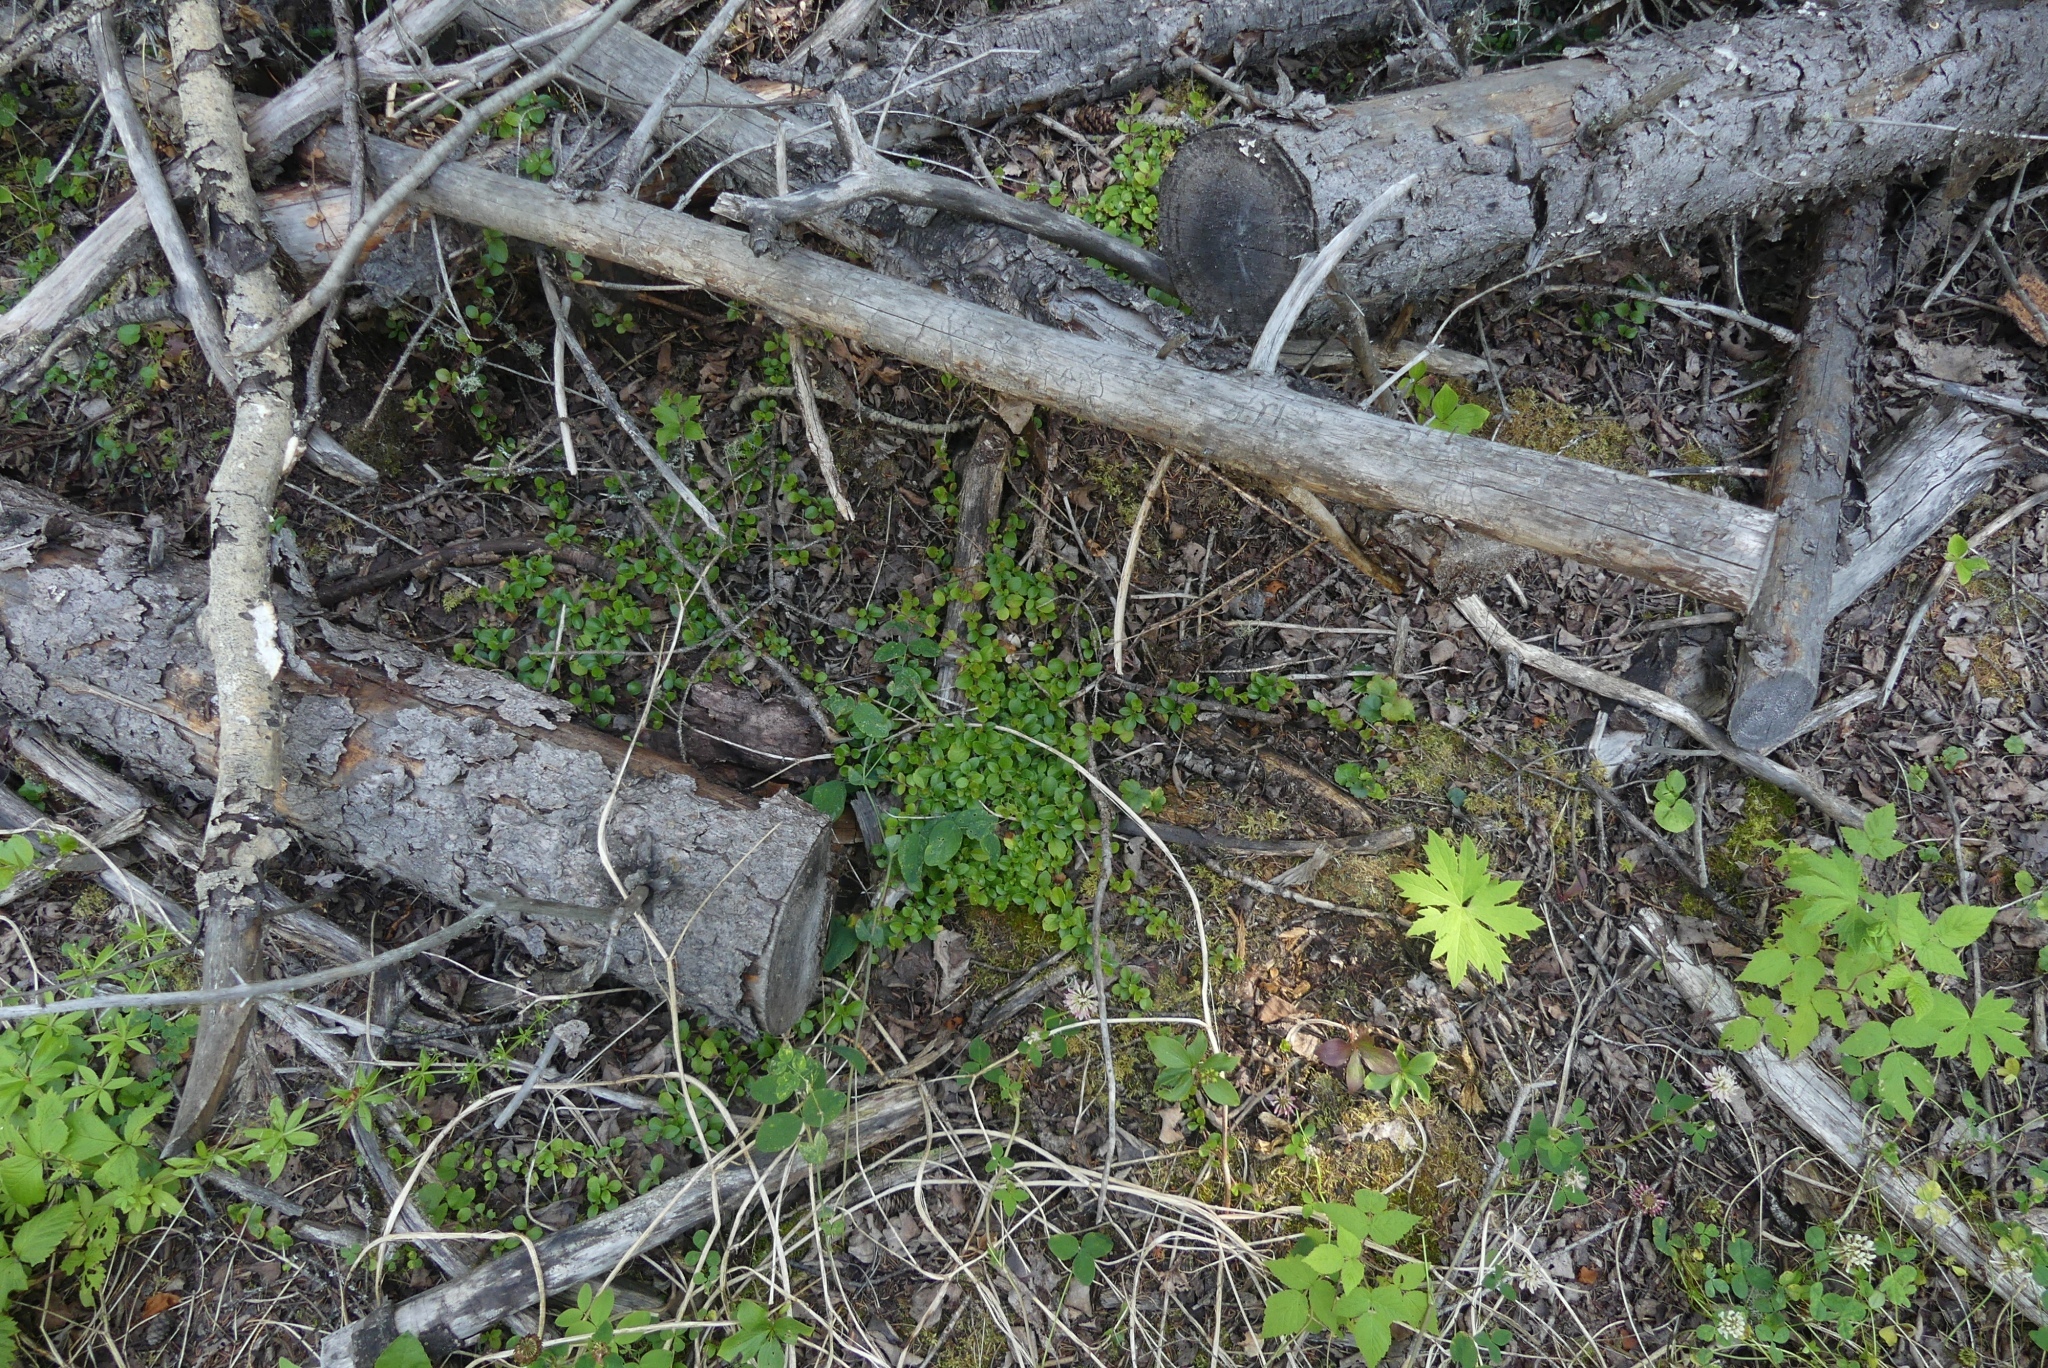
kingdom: Plantae
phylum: Tracheophyta
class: Magnoliopsida
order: Dipsacales
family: Caprifoliaceae
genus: Linnaea
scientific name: Linnaea borealis
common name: Twinflower
